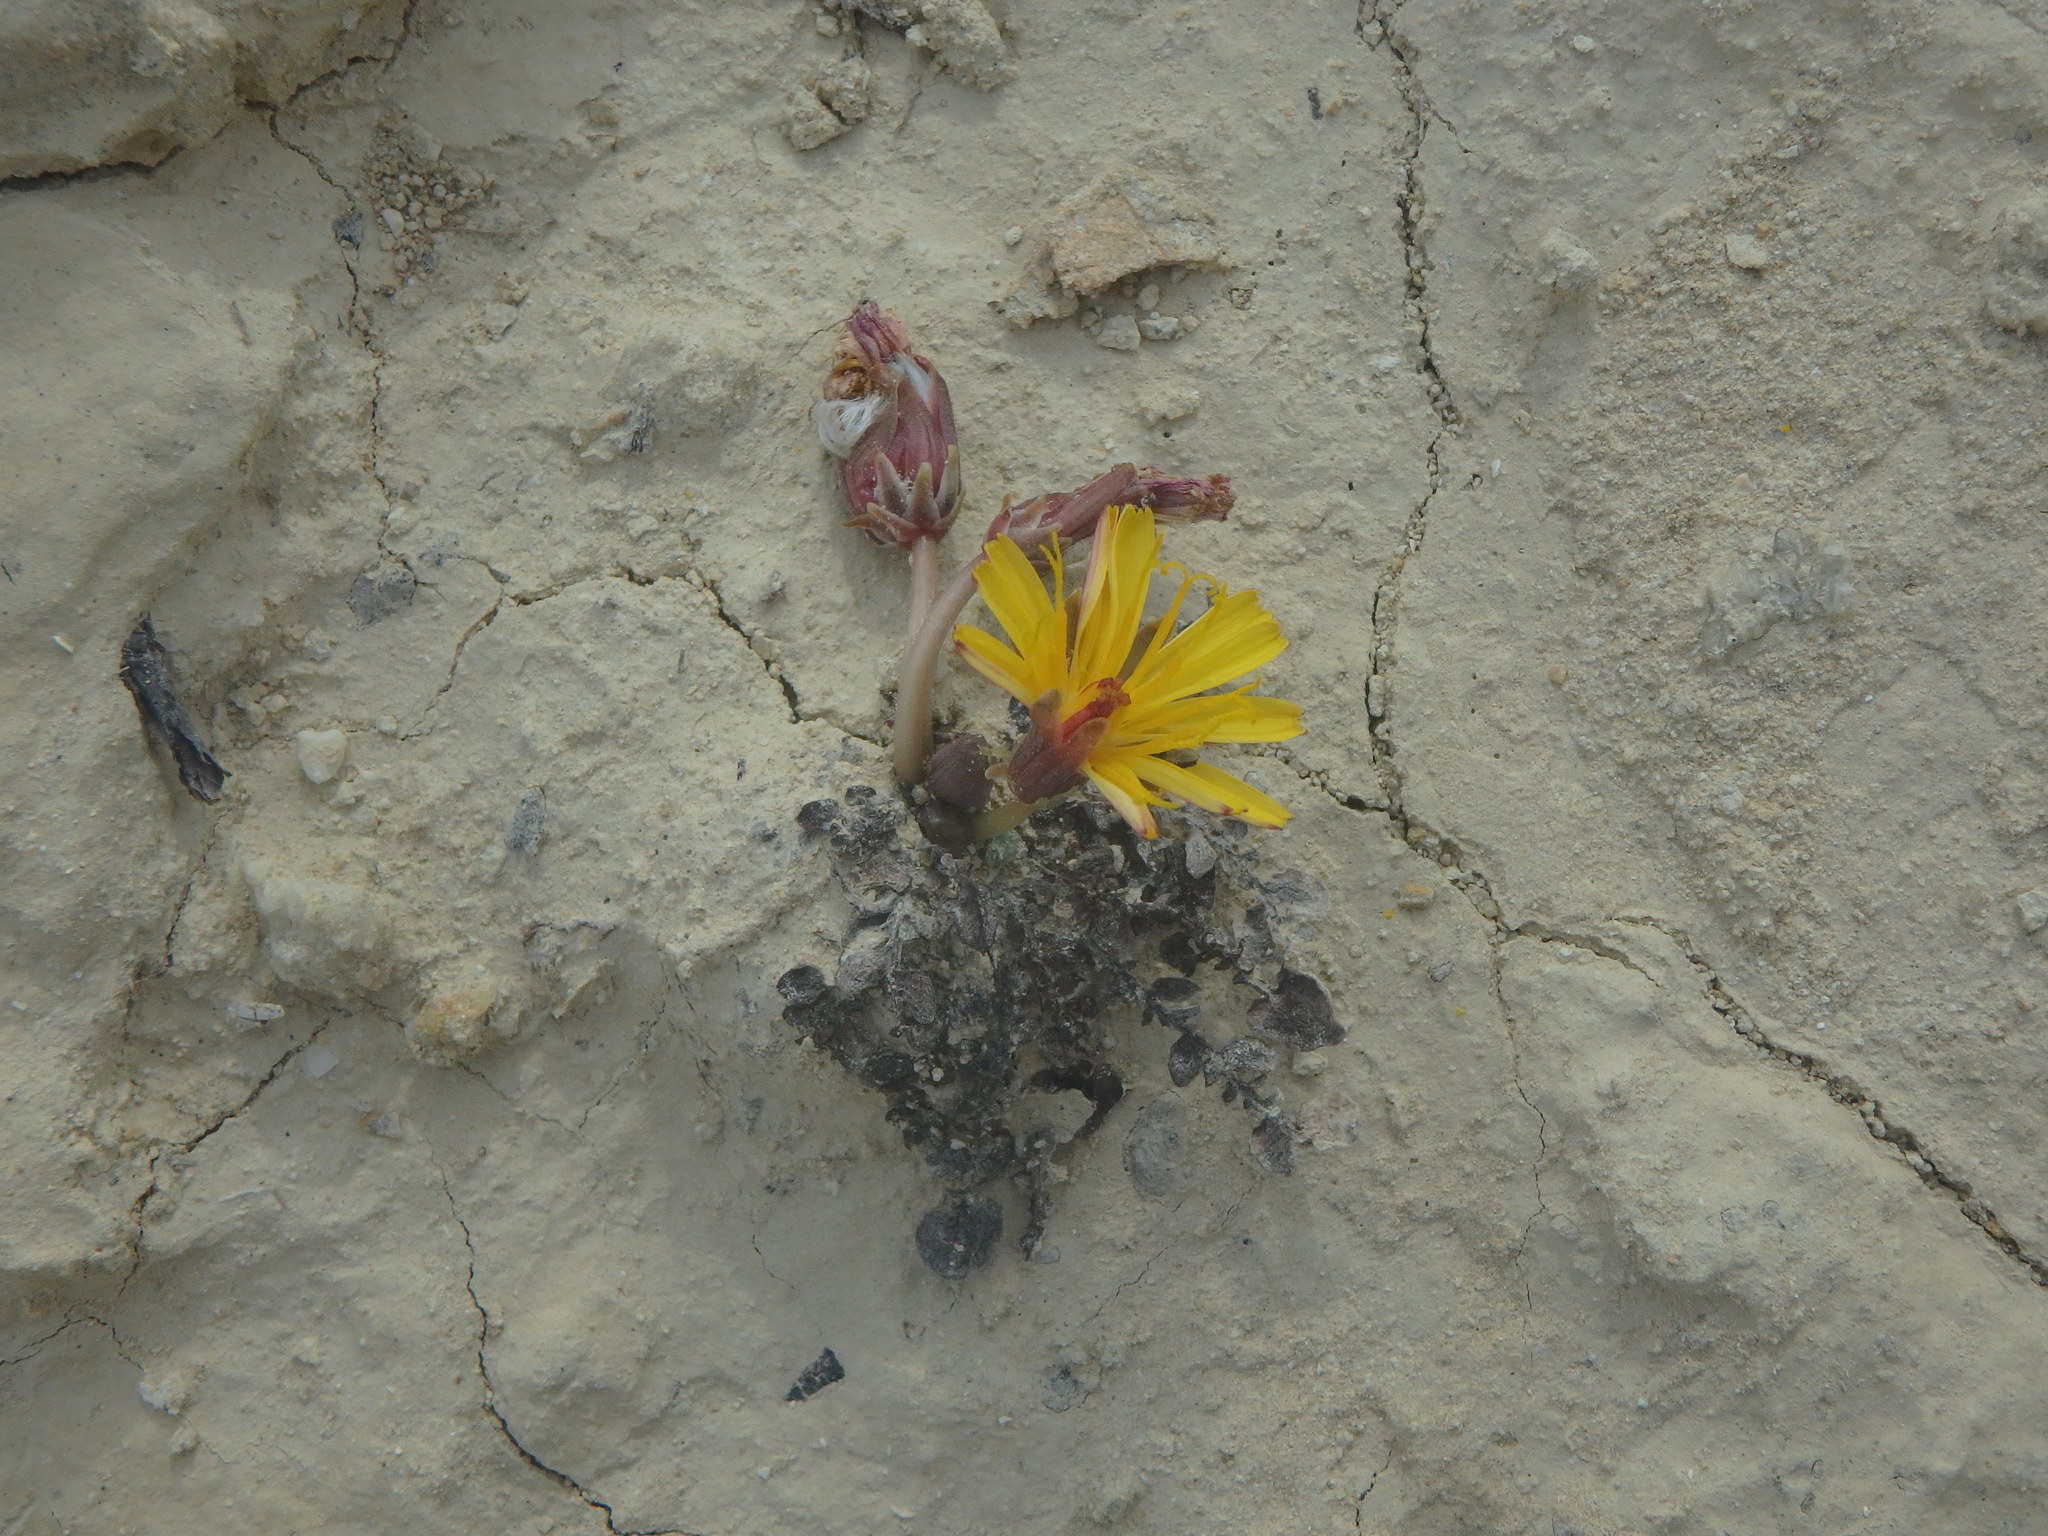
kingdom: Plantae
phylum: Tracheophyta
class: Magnoliopsida
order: Asterales
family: Asteraceae
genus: Taraxacum
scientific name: Taraxacum aphrogenes
